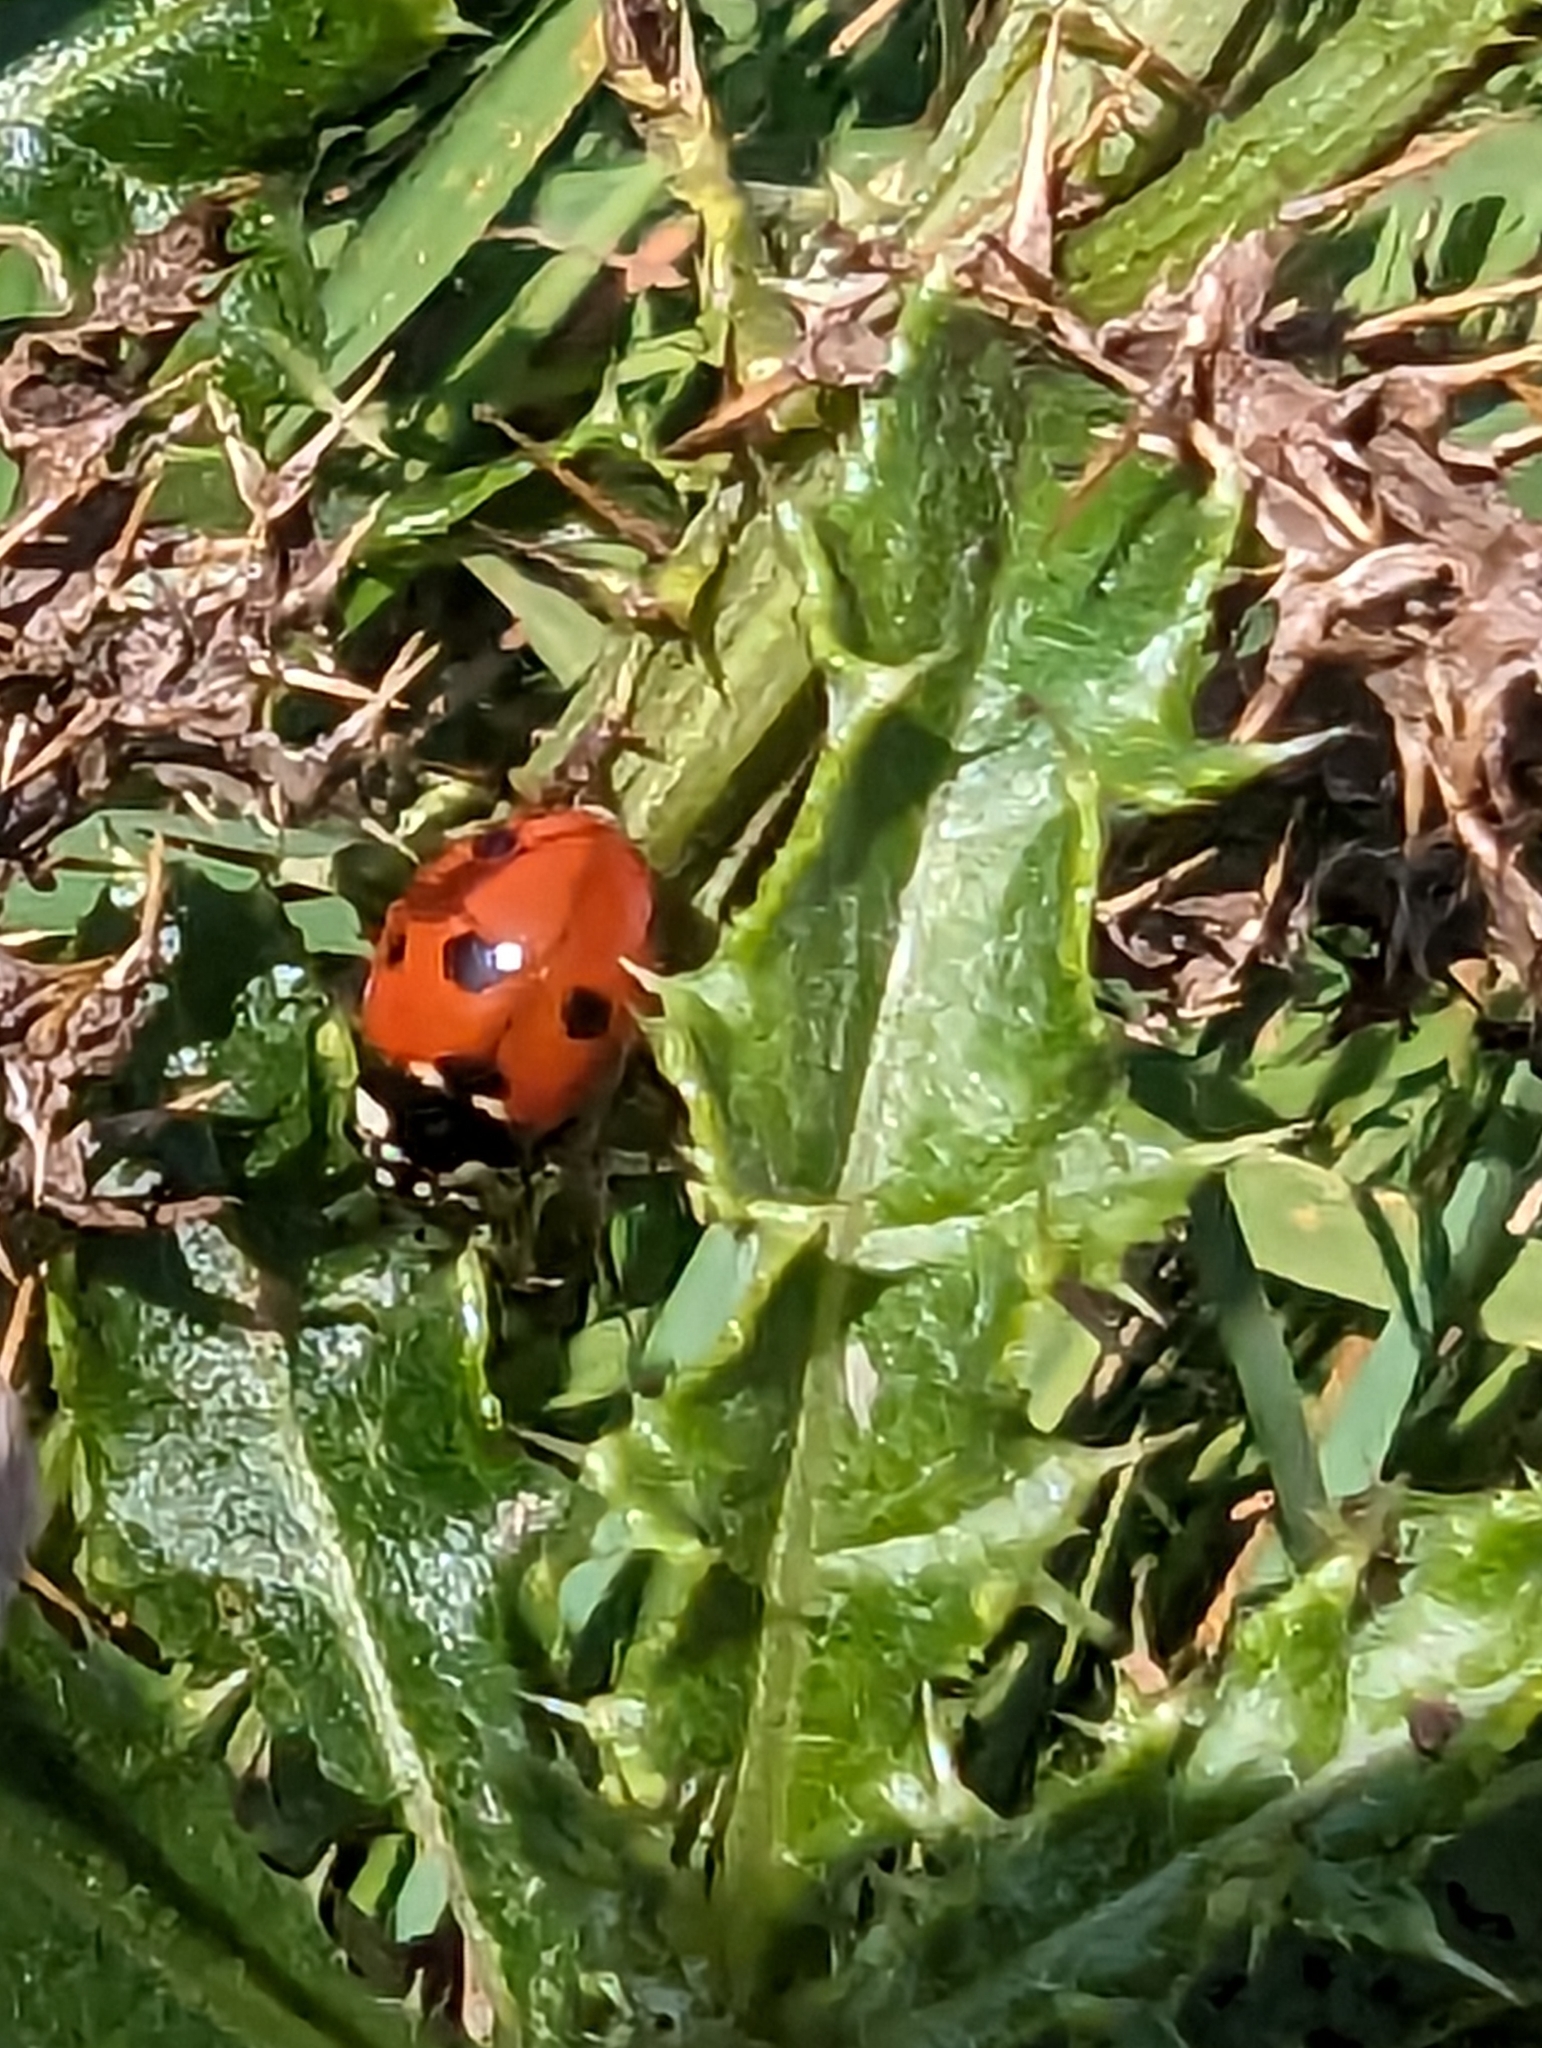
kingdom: Animalia
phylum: Arthropoda
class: Insecta
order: Coleoptera
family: Coccinellidae
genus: Coccinella
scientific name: Coccinella septempunctata
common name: Sevenspotted lady beetle
